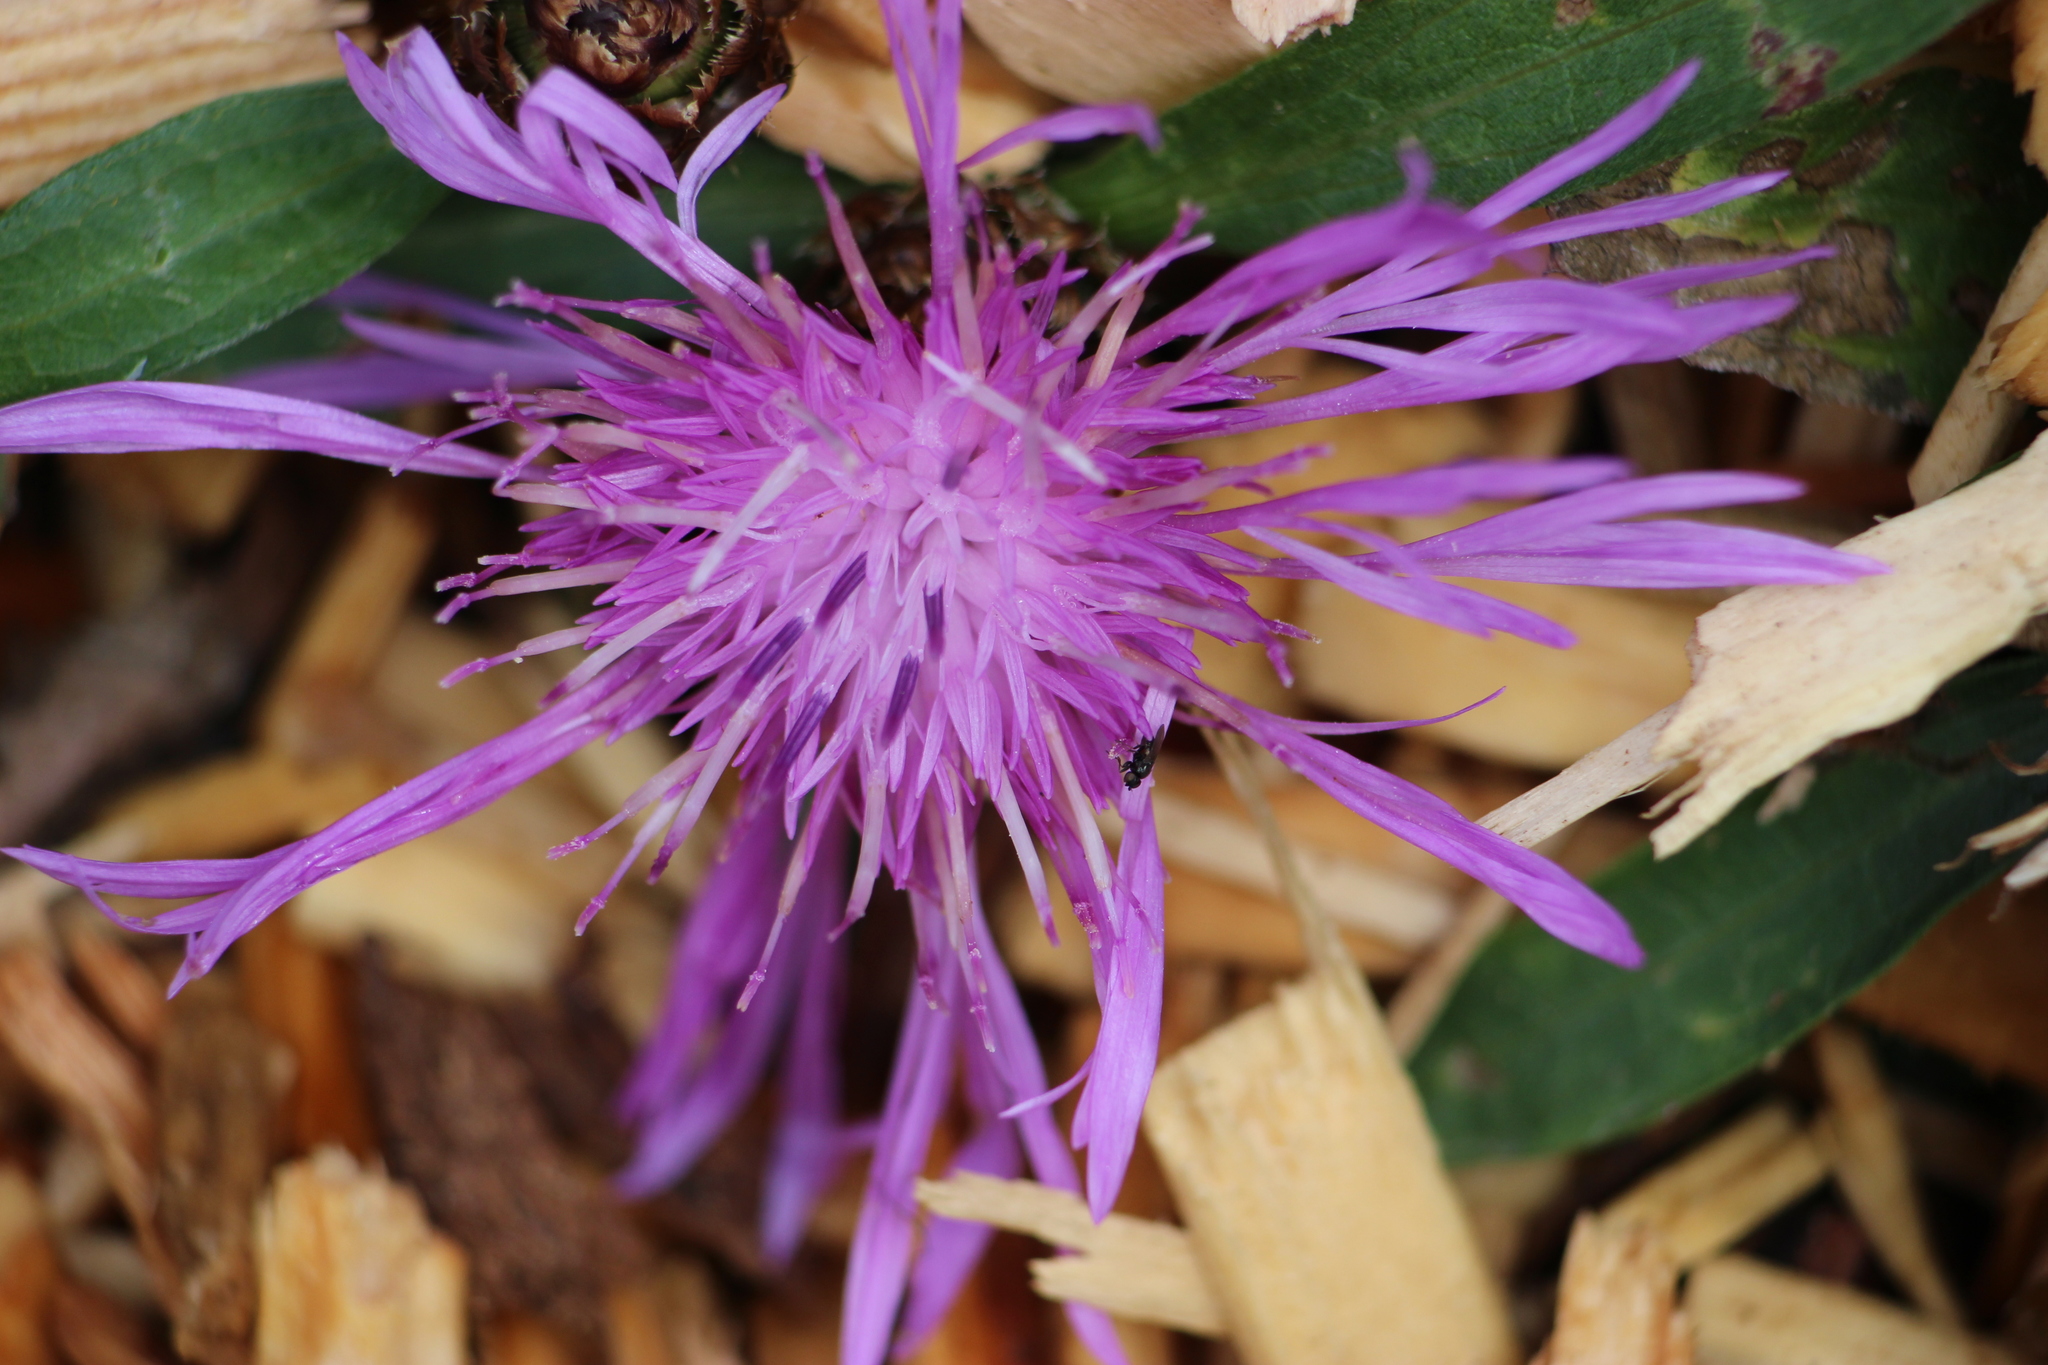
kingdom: Plantae
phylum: Tracheophyta
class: Magnoliopsida
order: Asterales
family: Asteraceae
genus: Centaurea
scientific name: Centaurea
